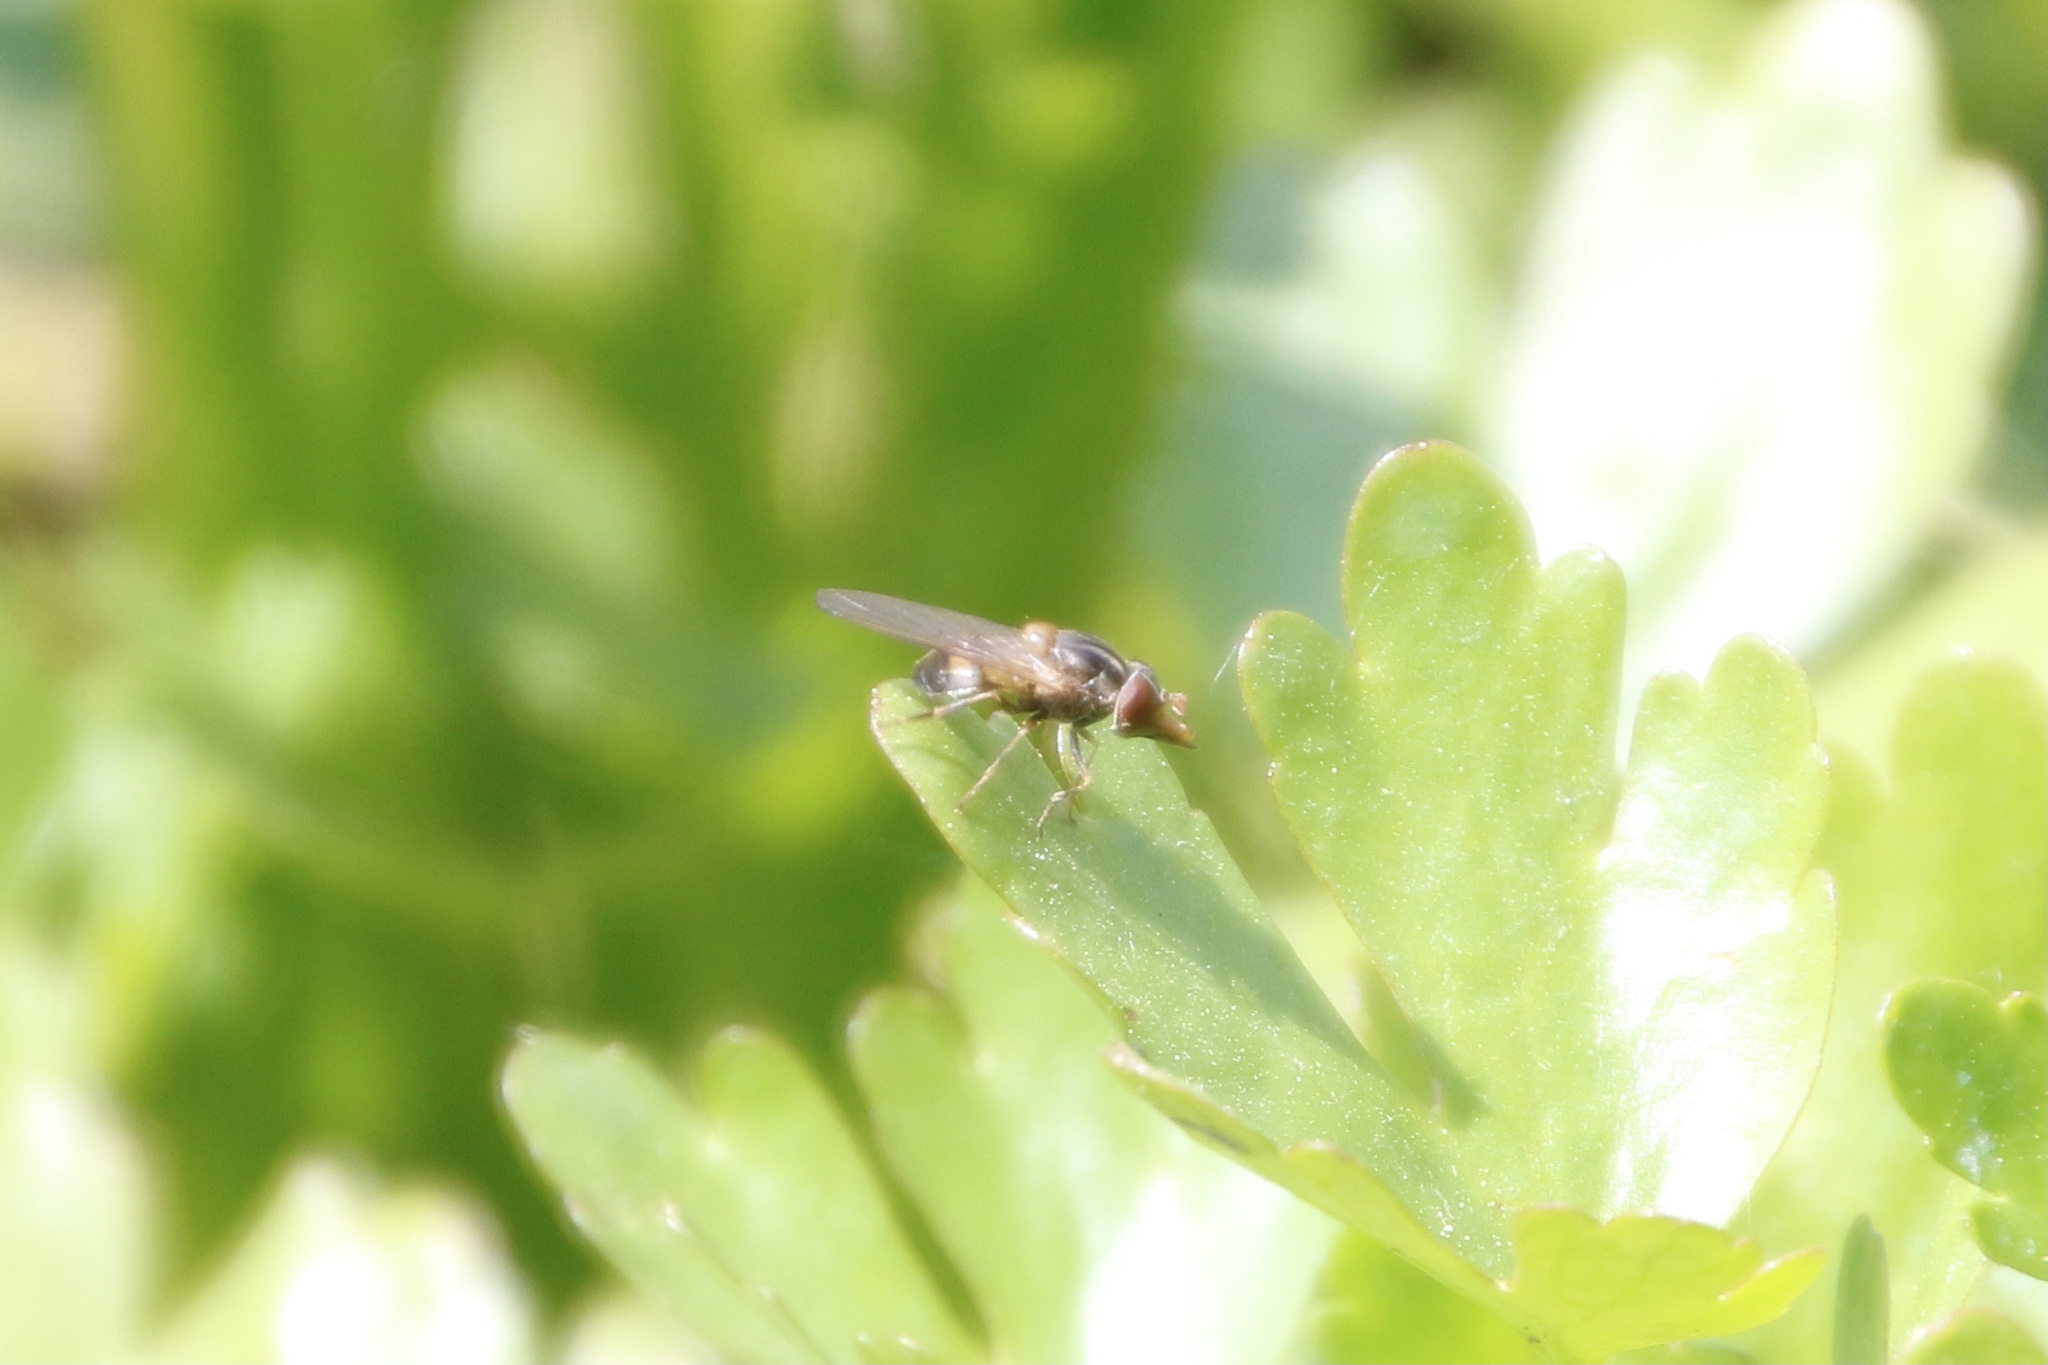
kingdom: Animalia
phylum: Arthropoda
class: Insecta
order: Diptera
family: Syrphidae
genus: Rhingia
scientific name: Rhingia nasica
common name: American snout fly
